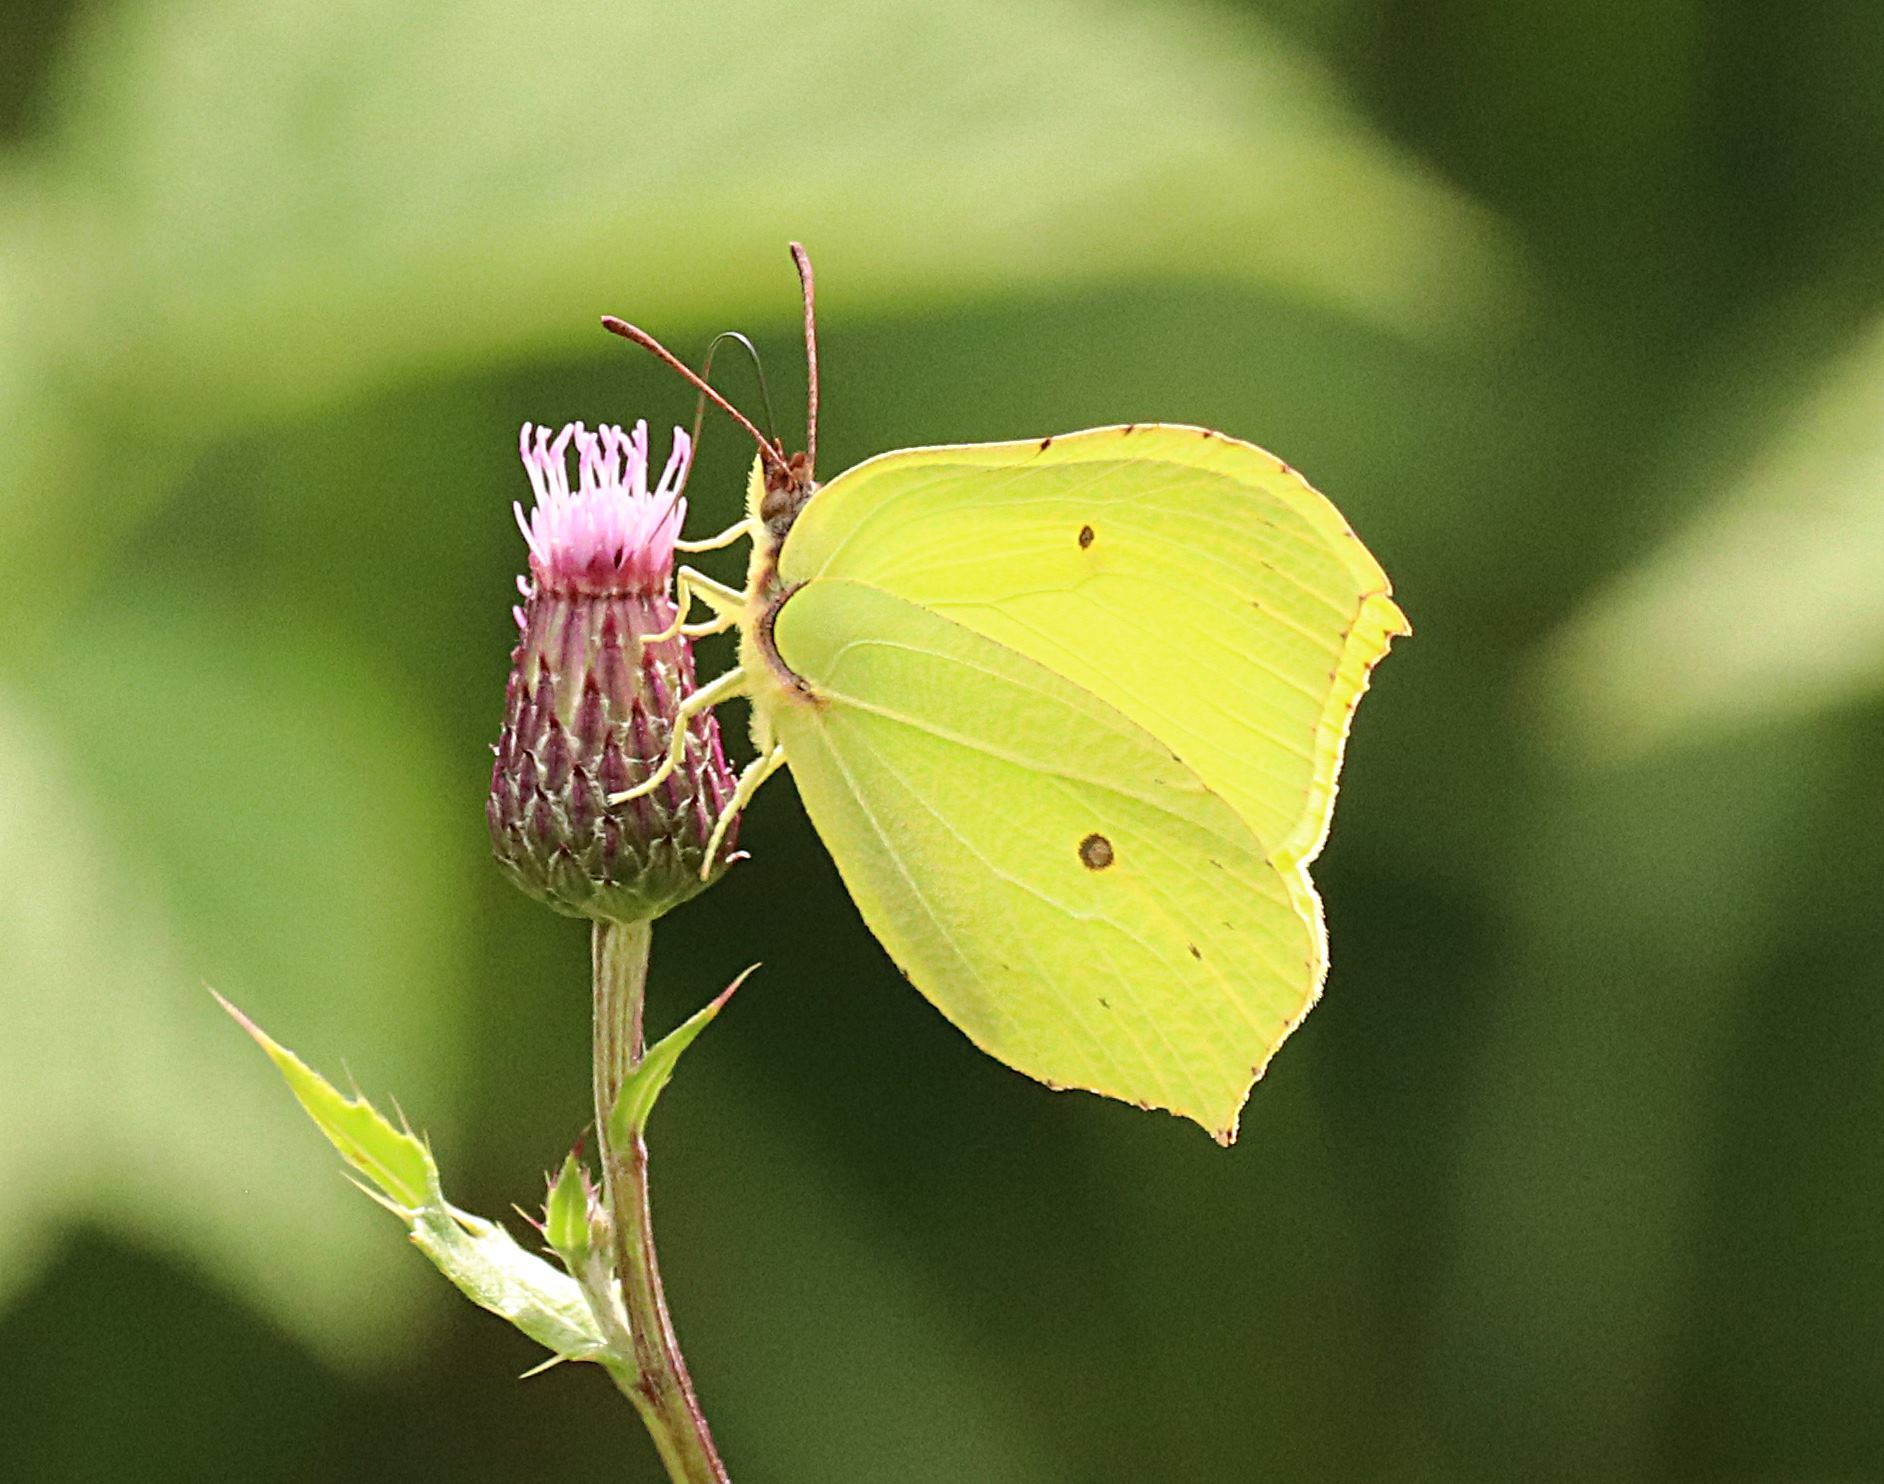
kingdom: Animalia
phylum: Arthropoda
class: Insecta
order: Lepidoptera
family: Pieridae
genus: Gonepteryx
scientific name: Gonepteryx rhamni
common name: Brimstone
